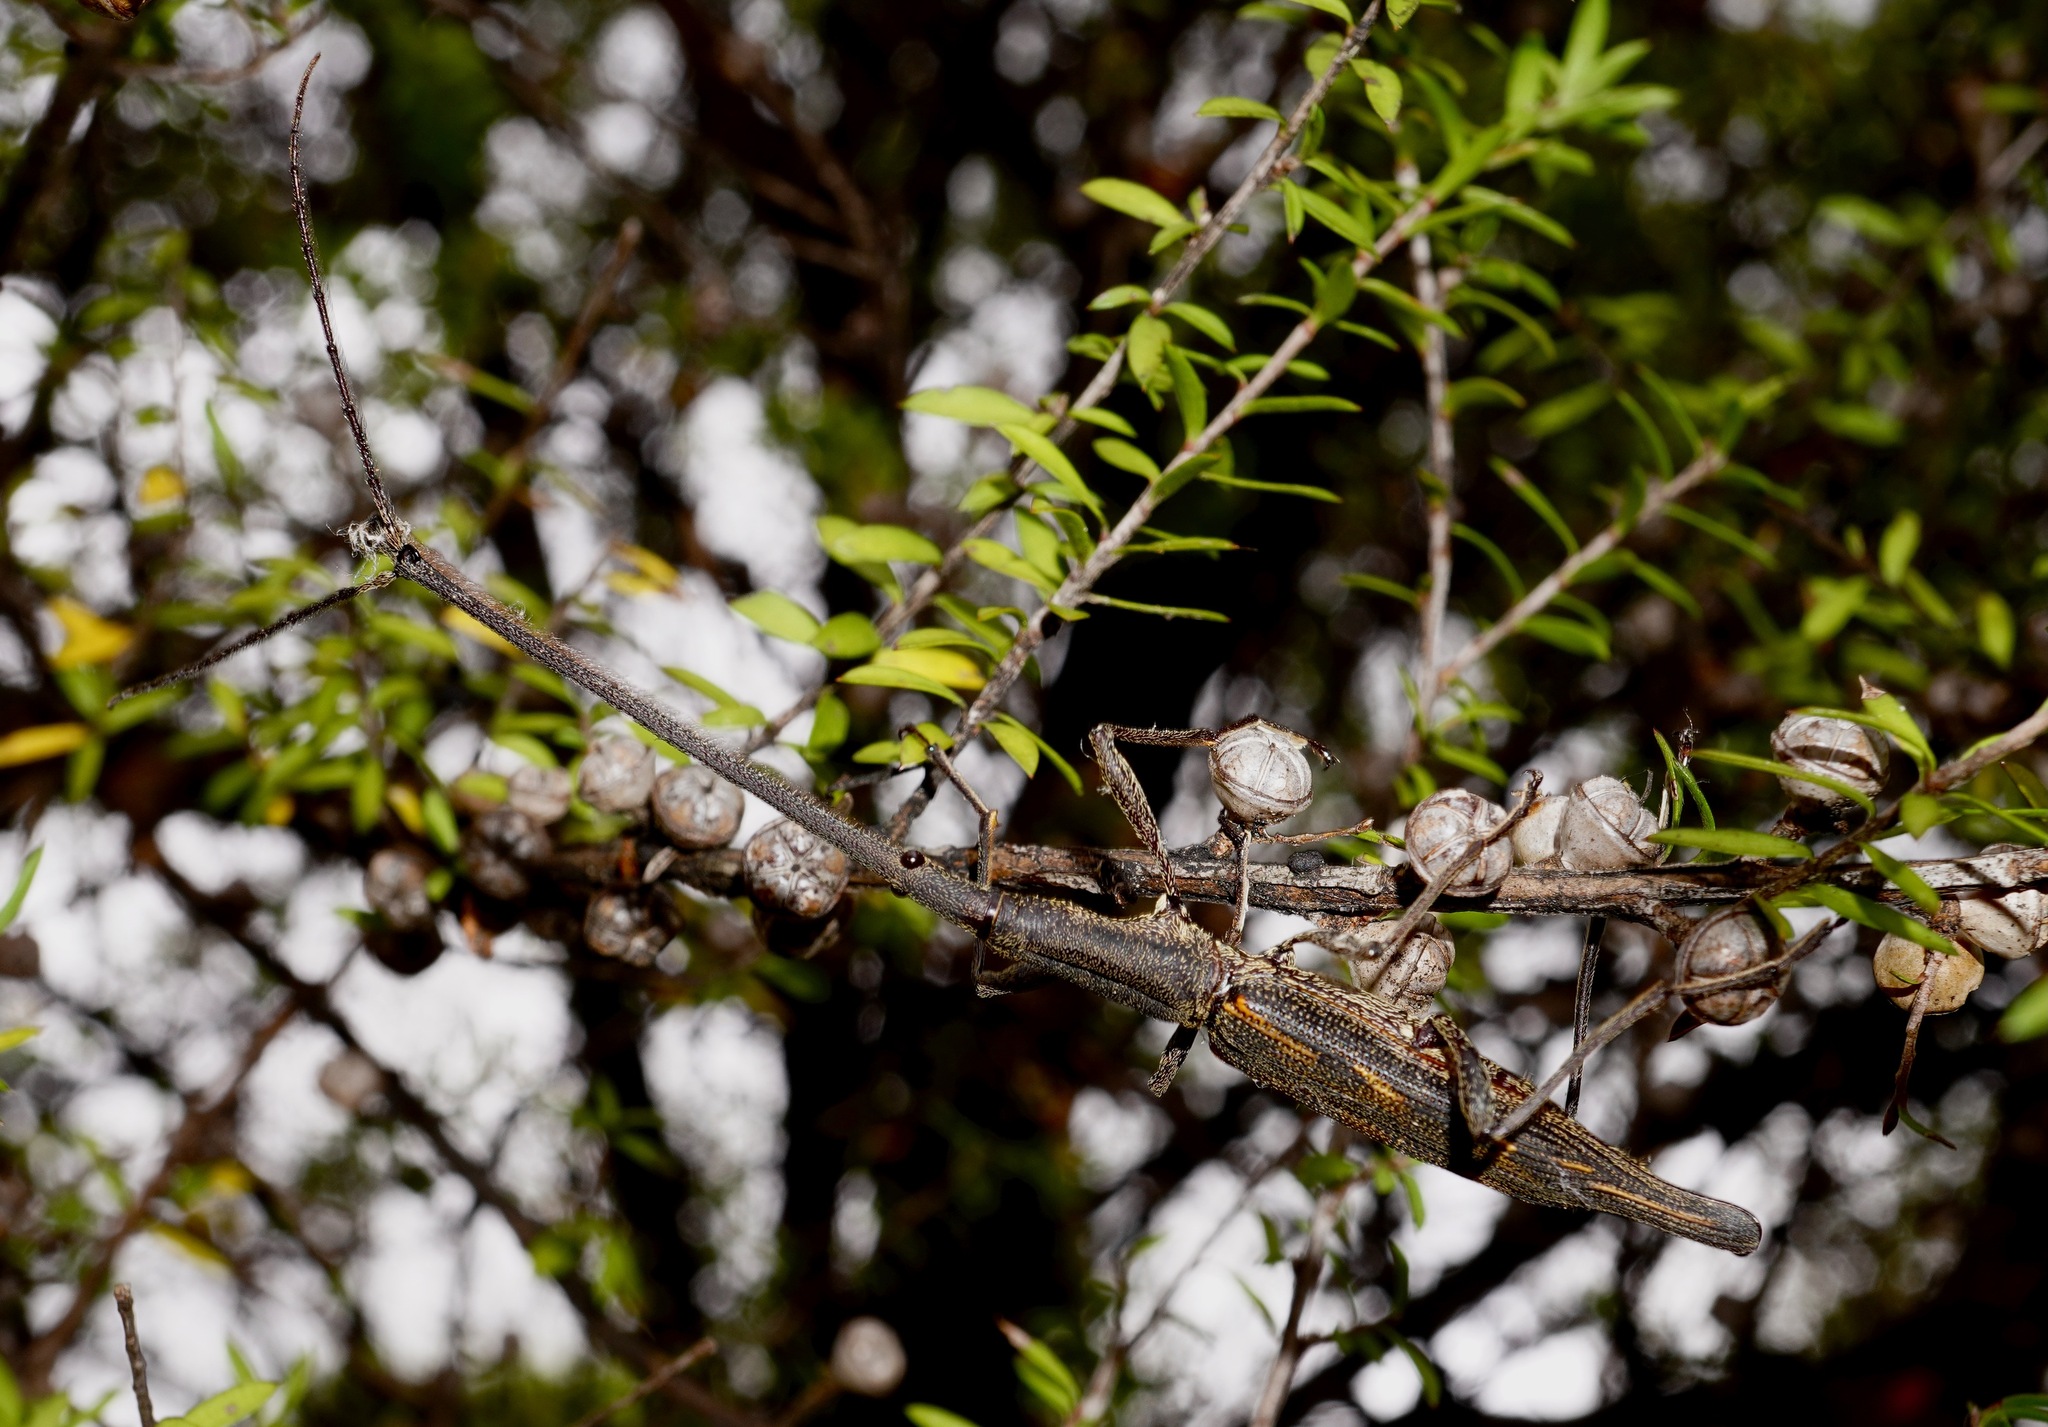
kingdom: Animalia
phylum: Arthropoda
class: Insecta
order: Coleoptera
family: Brentidae
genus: Lasiorhynchus
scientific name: Lasiorhynchus barbicornis
